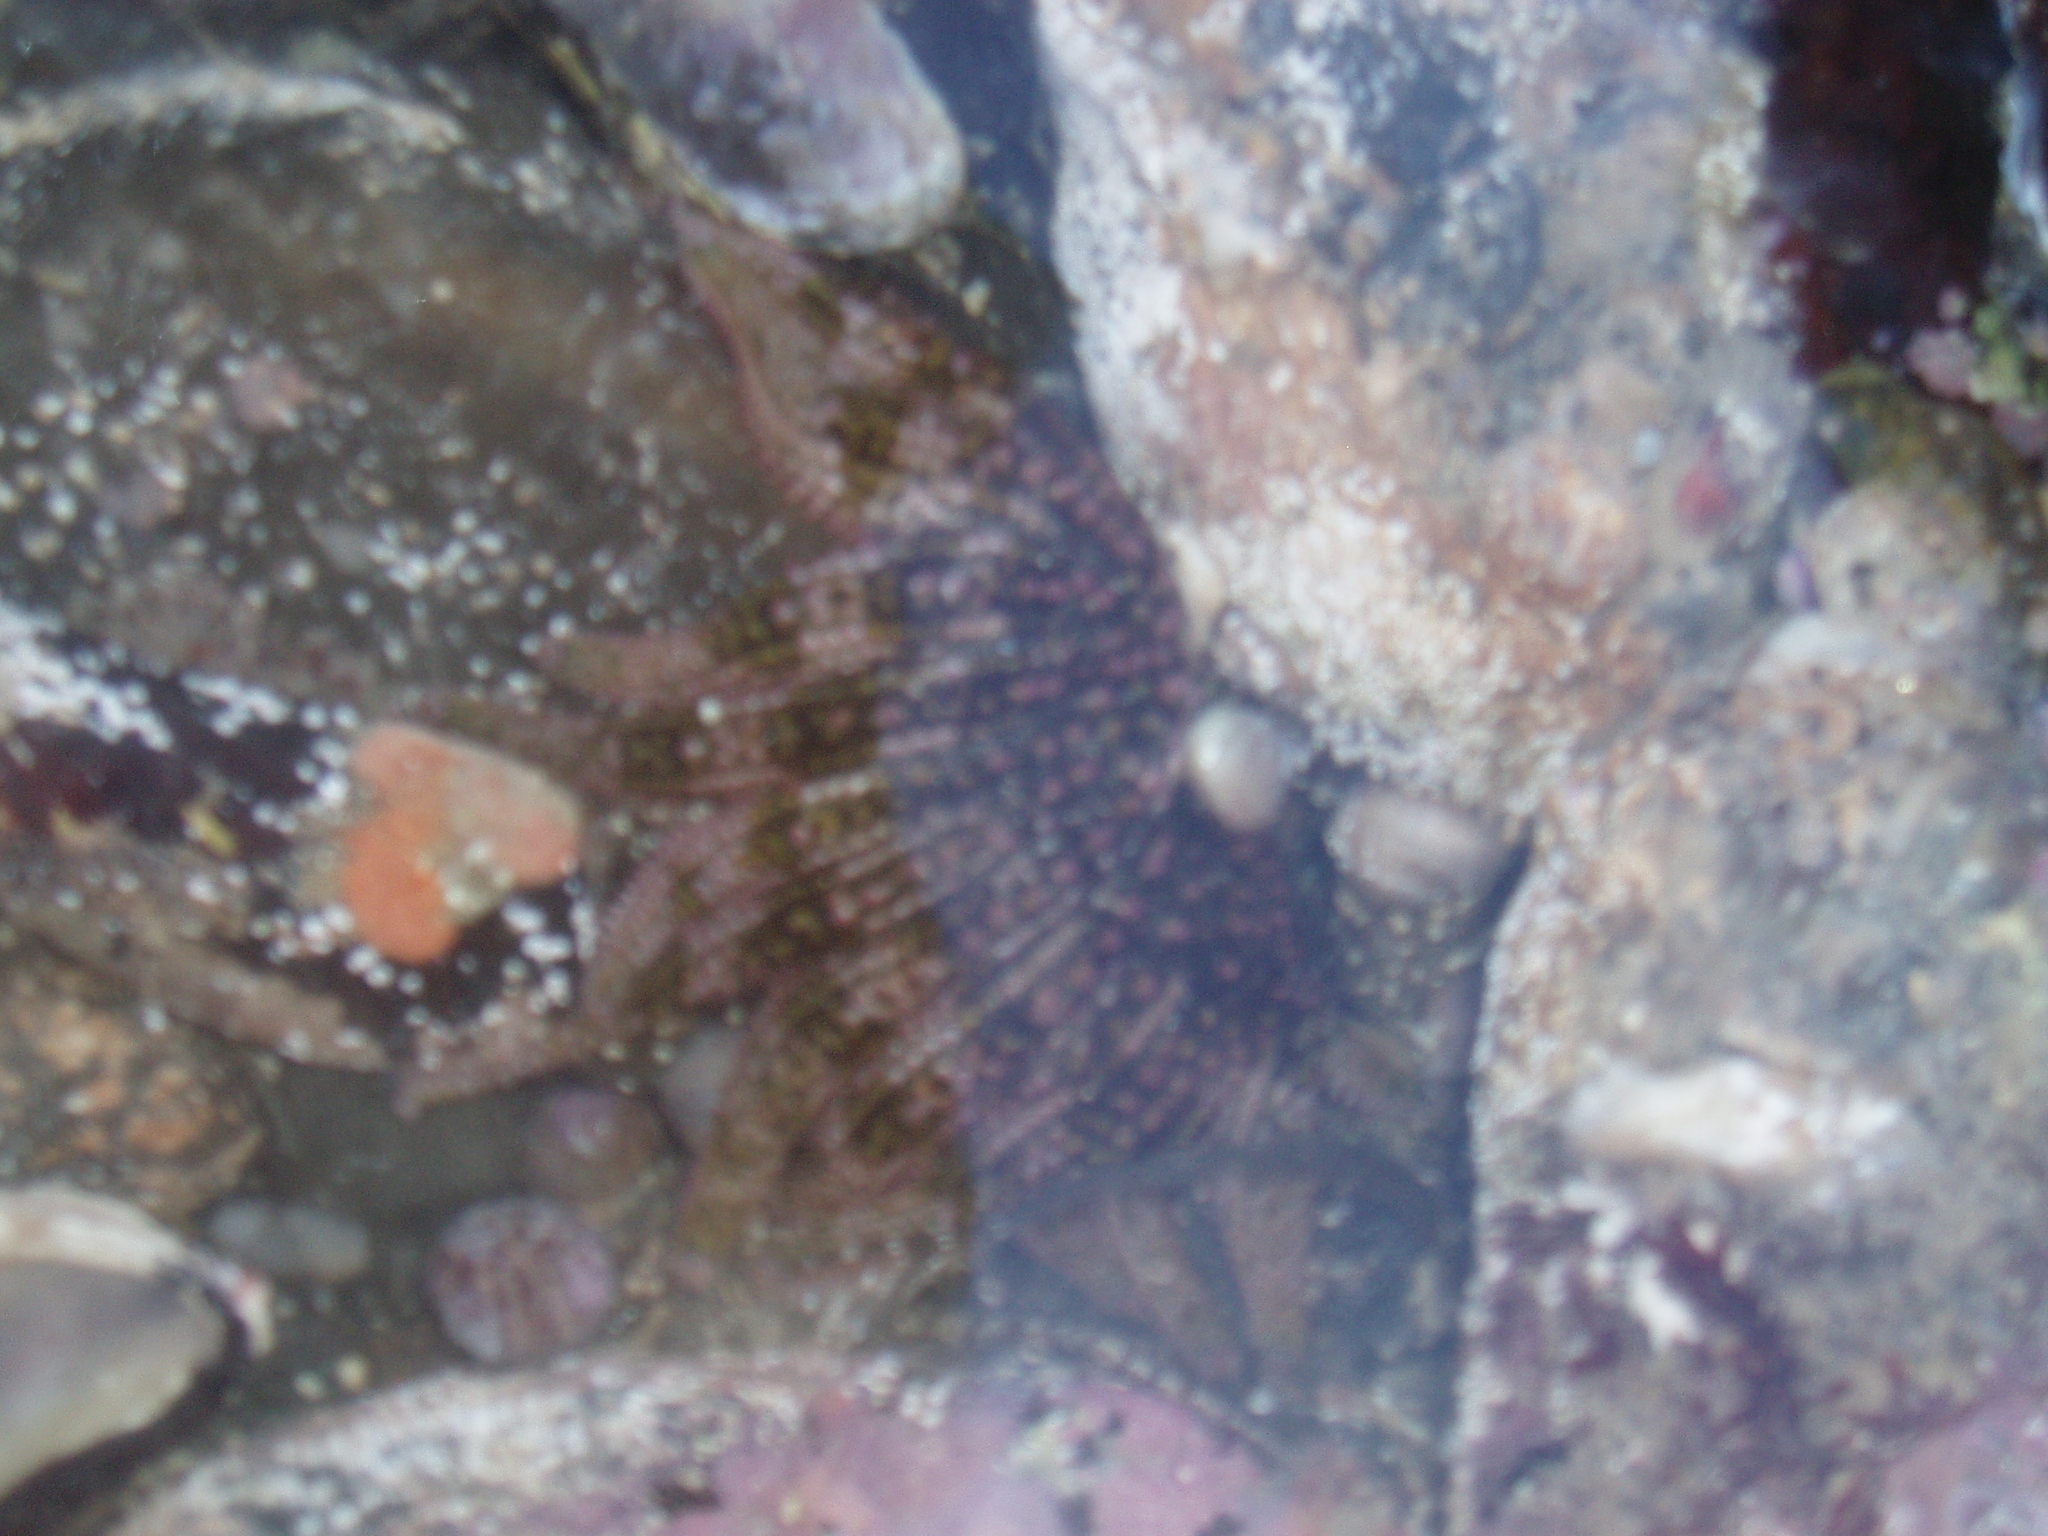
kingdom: Animalia
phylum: Echinodermata
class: Asteroidea
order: Forcipulatida
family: Heliasteridae
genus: Heliaster
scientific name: Heliaster helianthus
